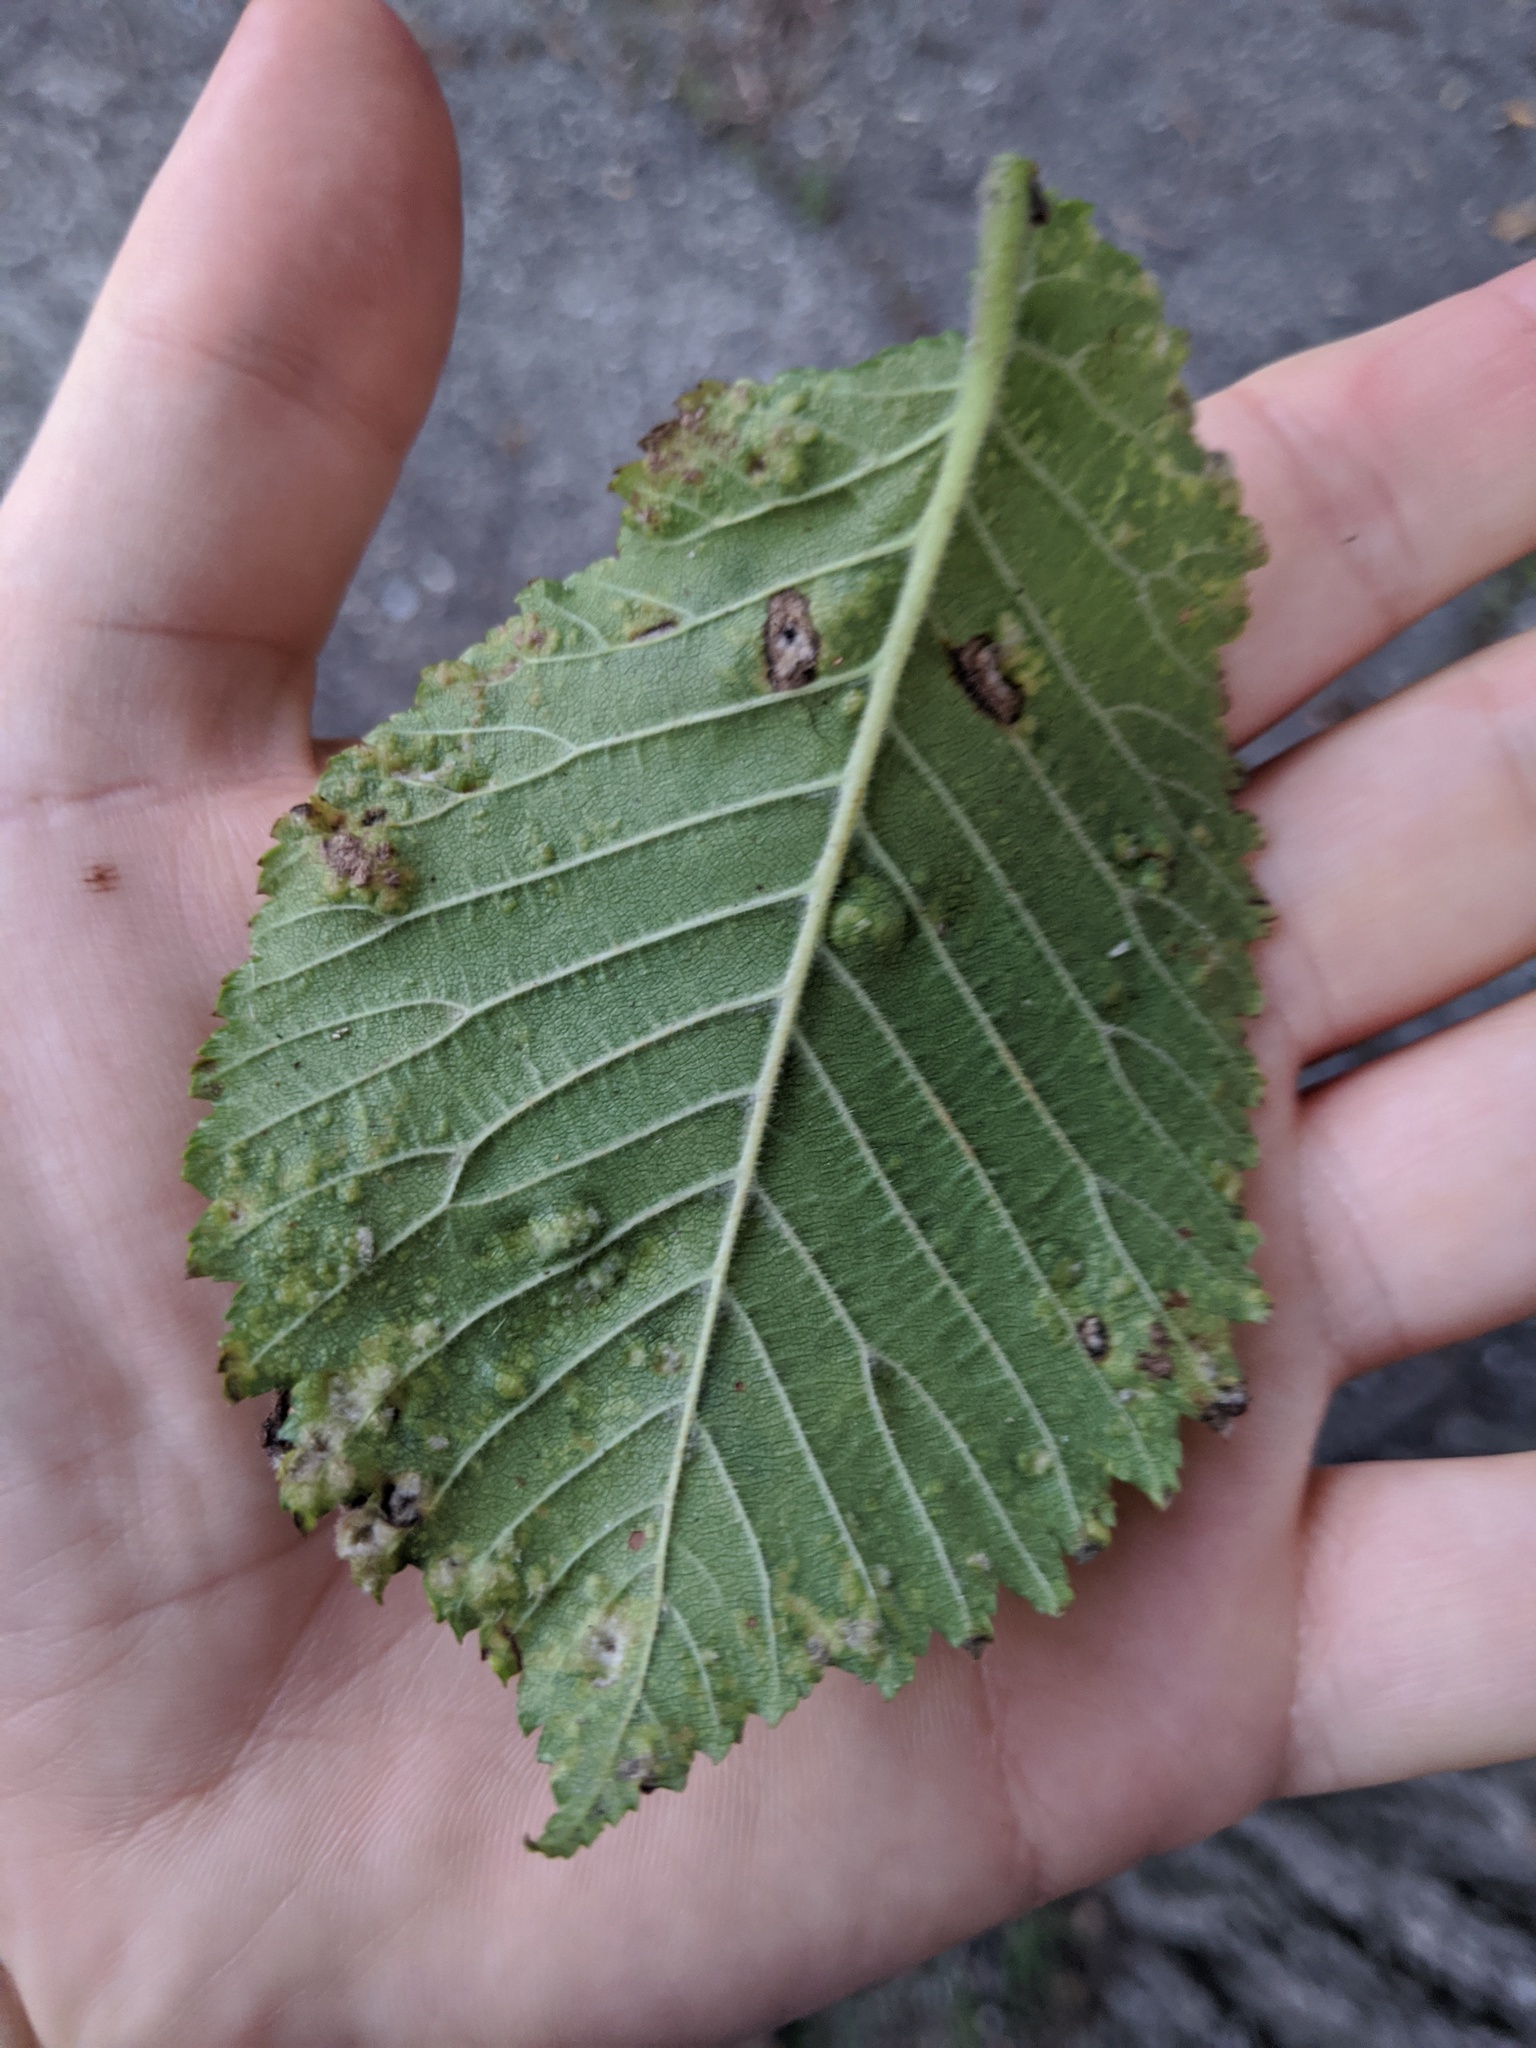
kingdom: Animalia
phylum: Arthropoda
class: Insecta
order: Hemiptera
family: Aphididae
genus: Tetraneura
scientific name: Tetraneura nigriabdominalis
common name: Aphid
